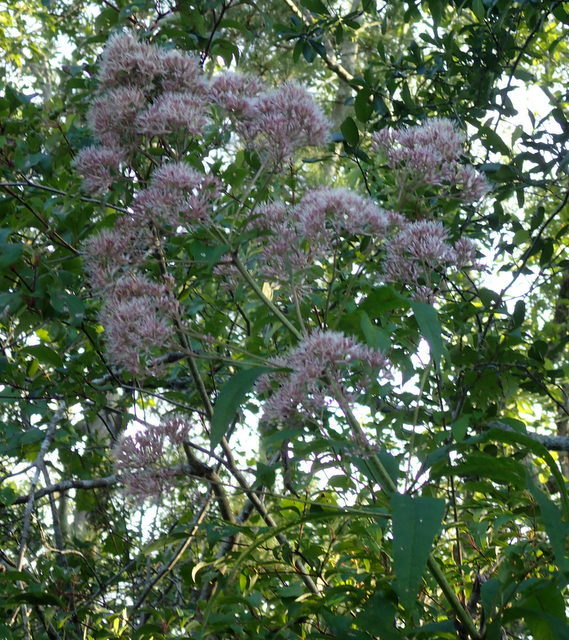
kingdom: Plantae
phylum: Tracheophyta
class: Magnoliopsida
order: Asterales
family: Asteraceae
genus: Eutrochium
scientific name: Eutrochium fistulosum
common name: Trumpetweed
